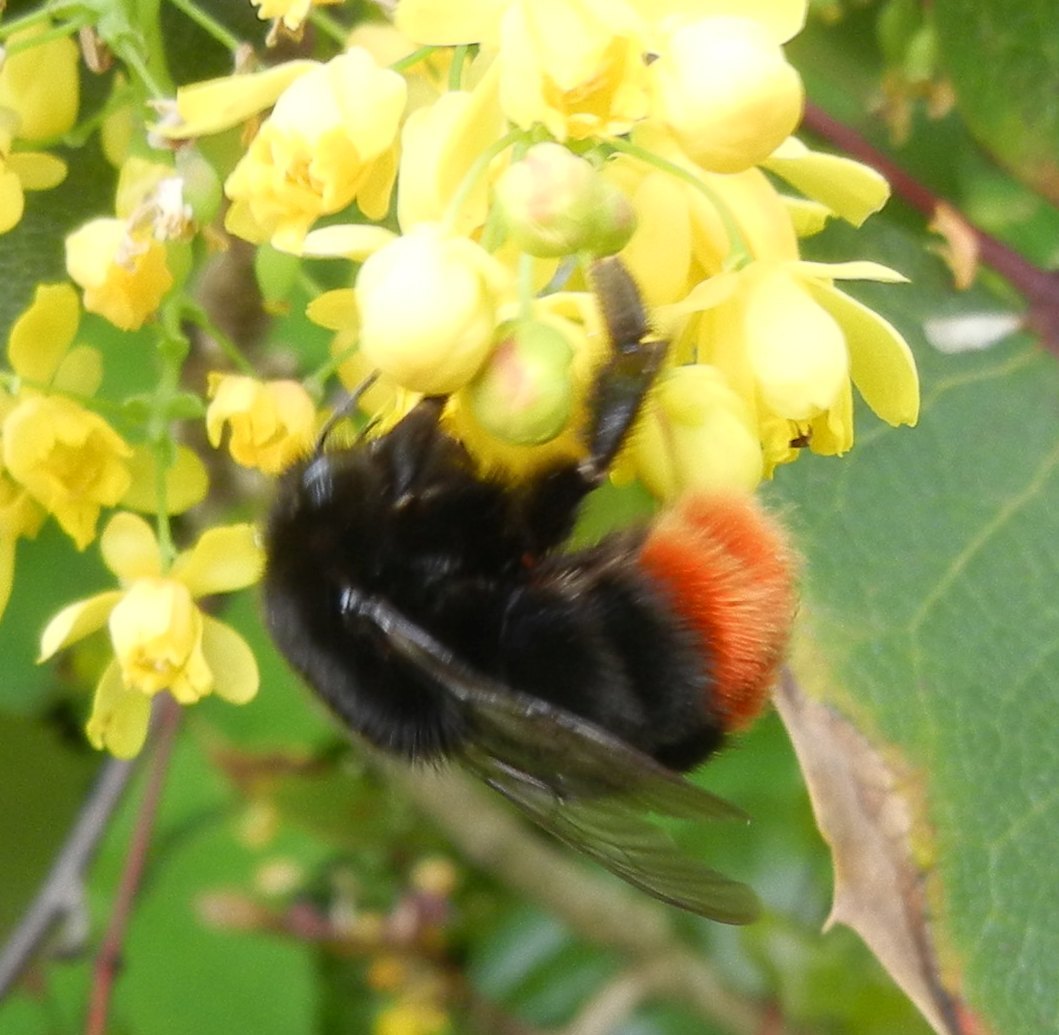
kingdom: Animalia
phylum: Arthropoda
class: Insecta
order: Hymenoptera
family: Apidae
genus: Bombus
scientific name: Bombus lapidarius
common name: Large red-tailed humble-bee
